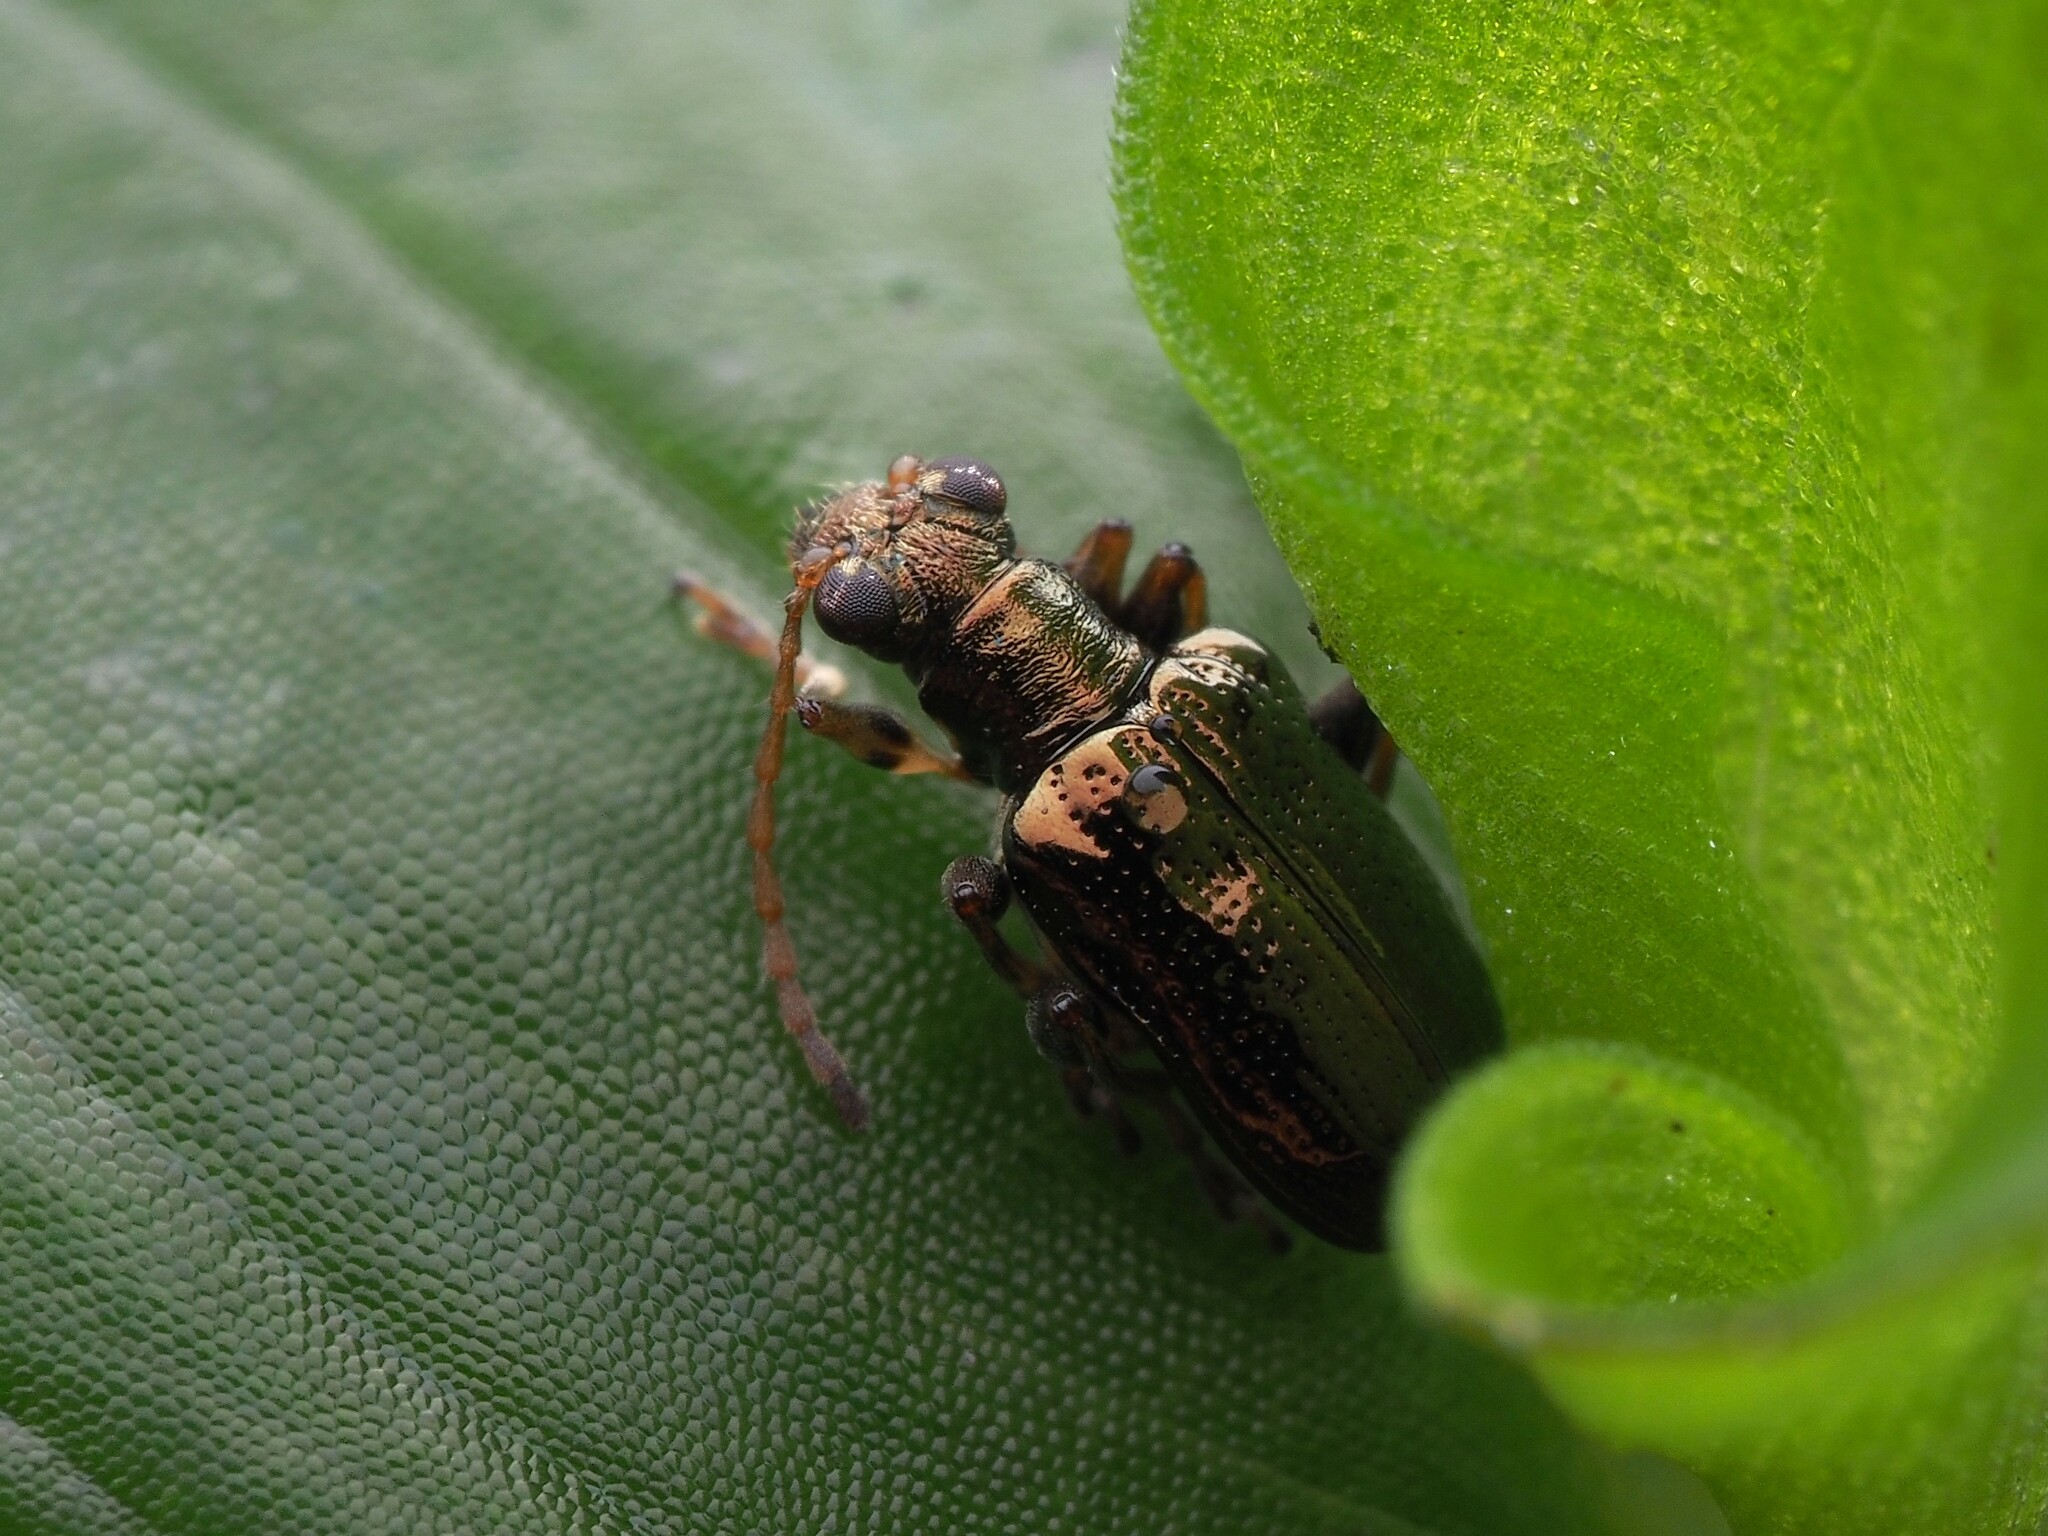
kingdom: Animalia
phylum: Arthropoda
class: Insecta
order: Coleoptera
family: Chrysomelidae
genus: Neolema
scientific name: Neolema ogloblini
